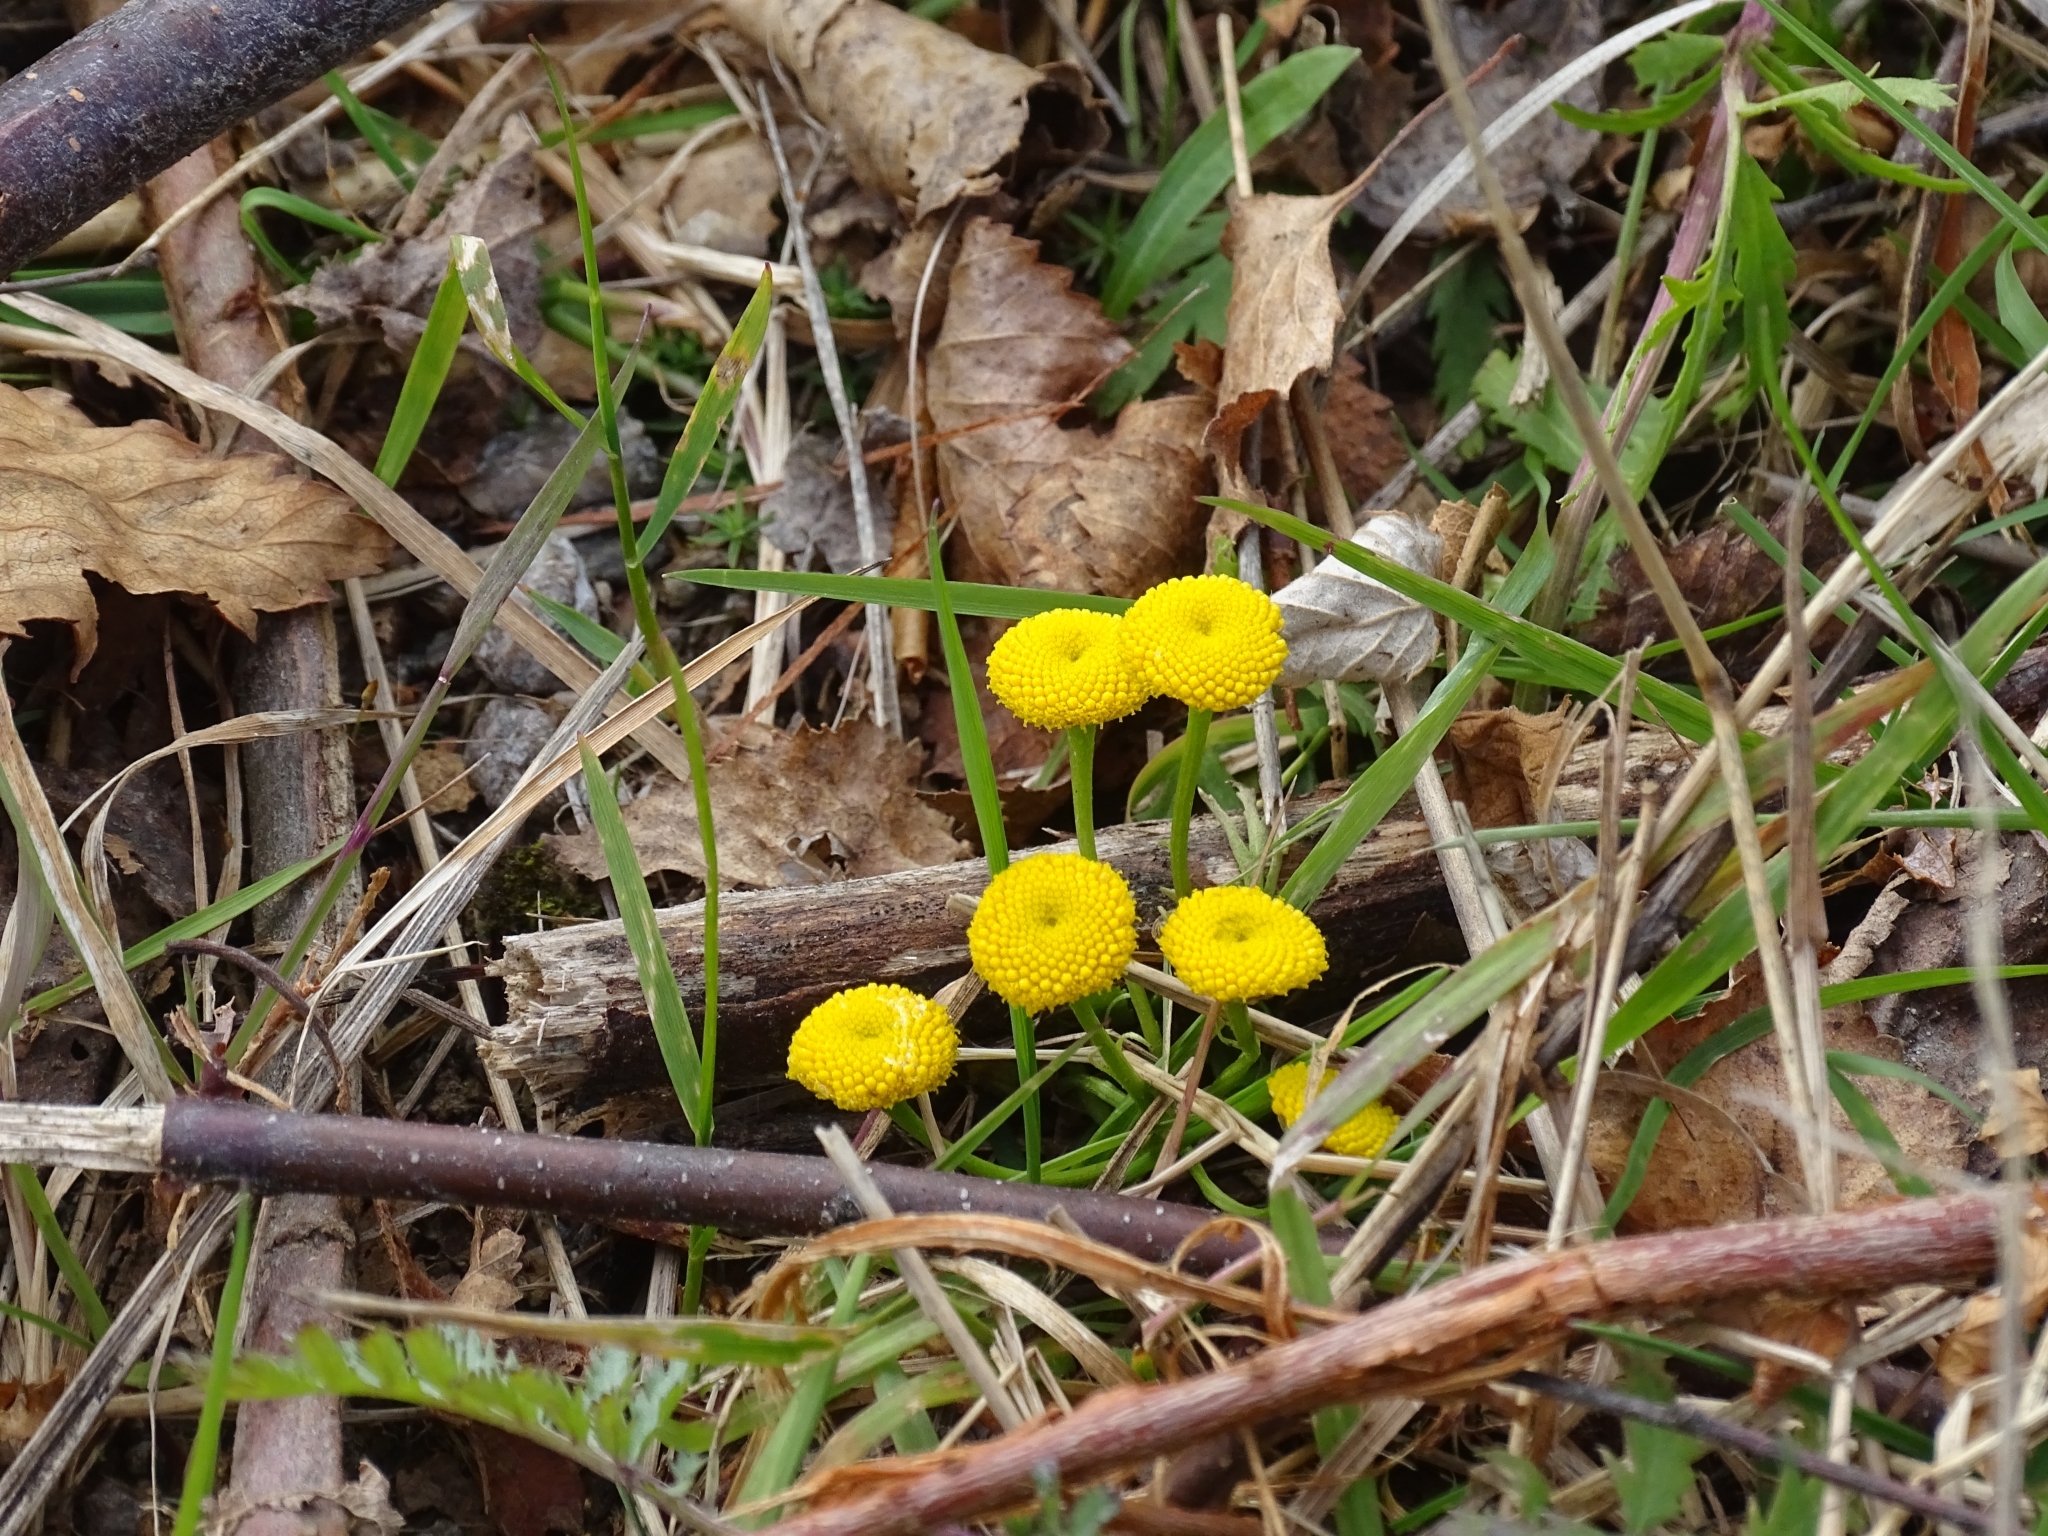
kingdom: Plantae
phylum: Tracheophyta
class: Magnoliopsida
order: Asterales
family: Asteraceae
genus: Tanacetum
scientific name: Tanacetum vulgare
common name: Common tansy
